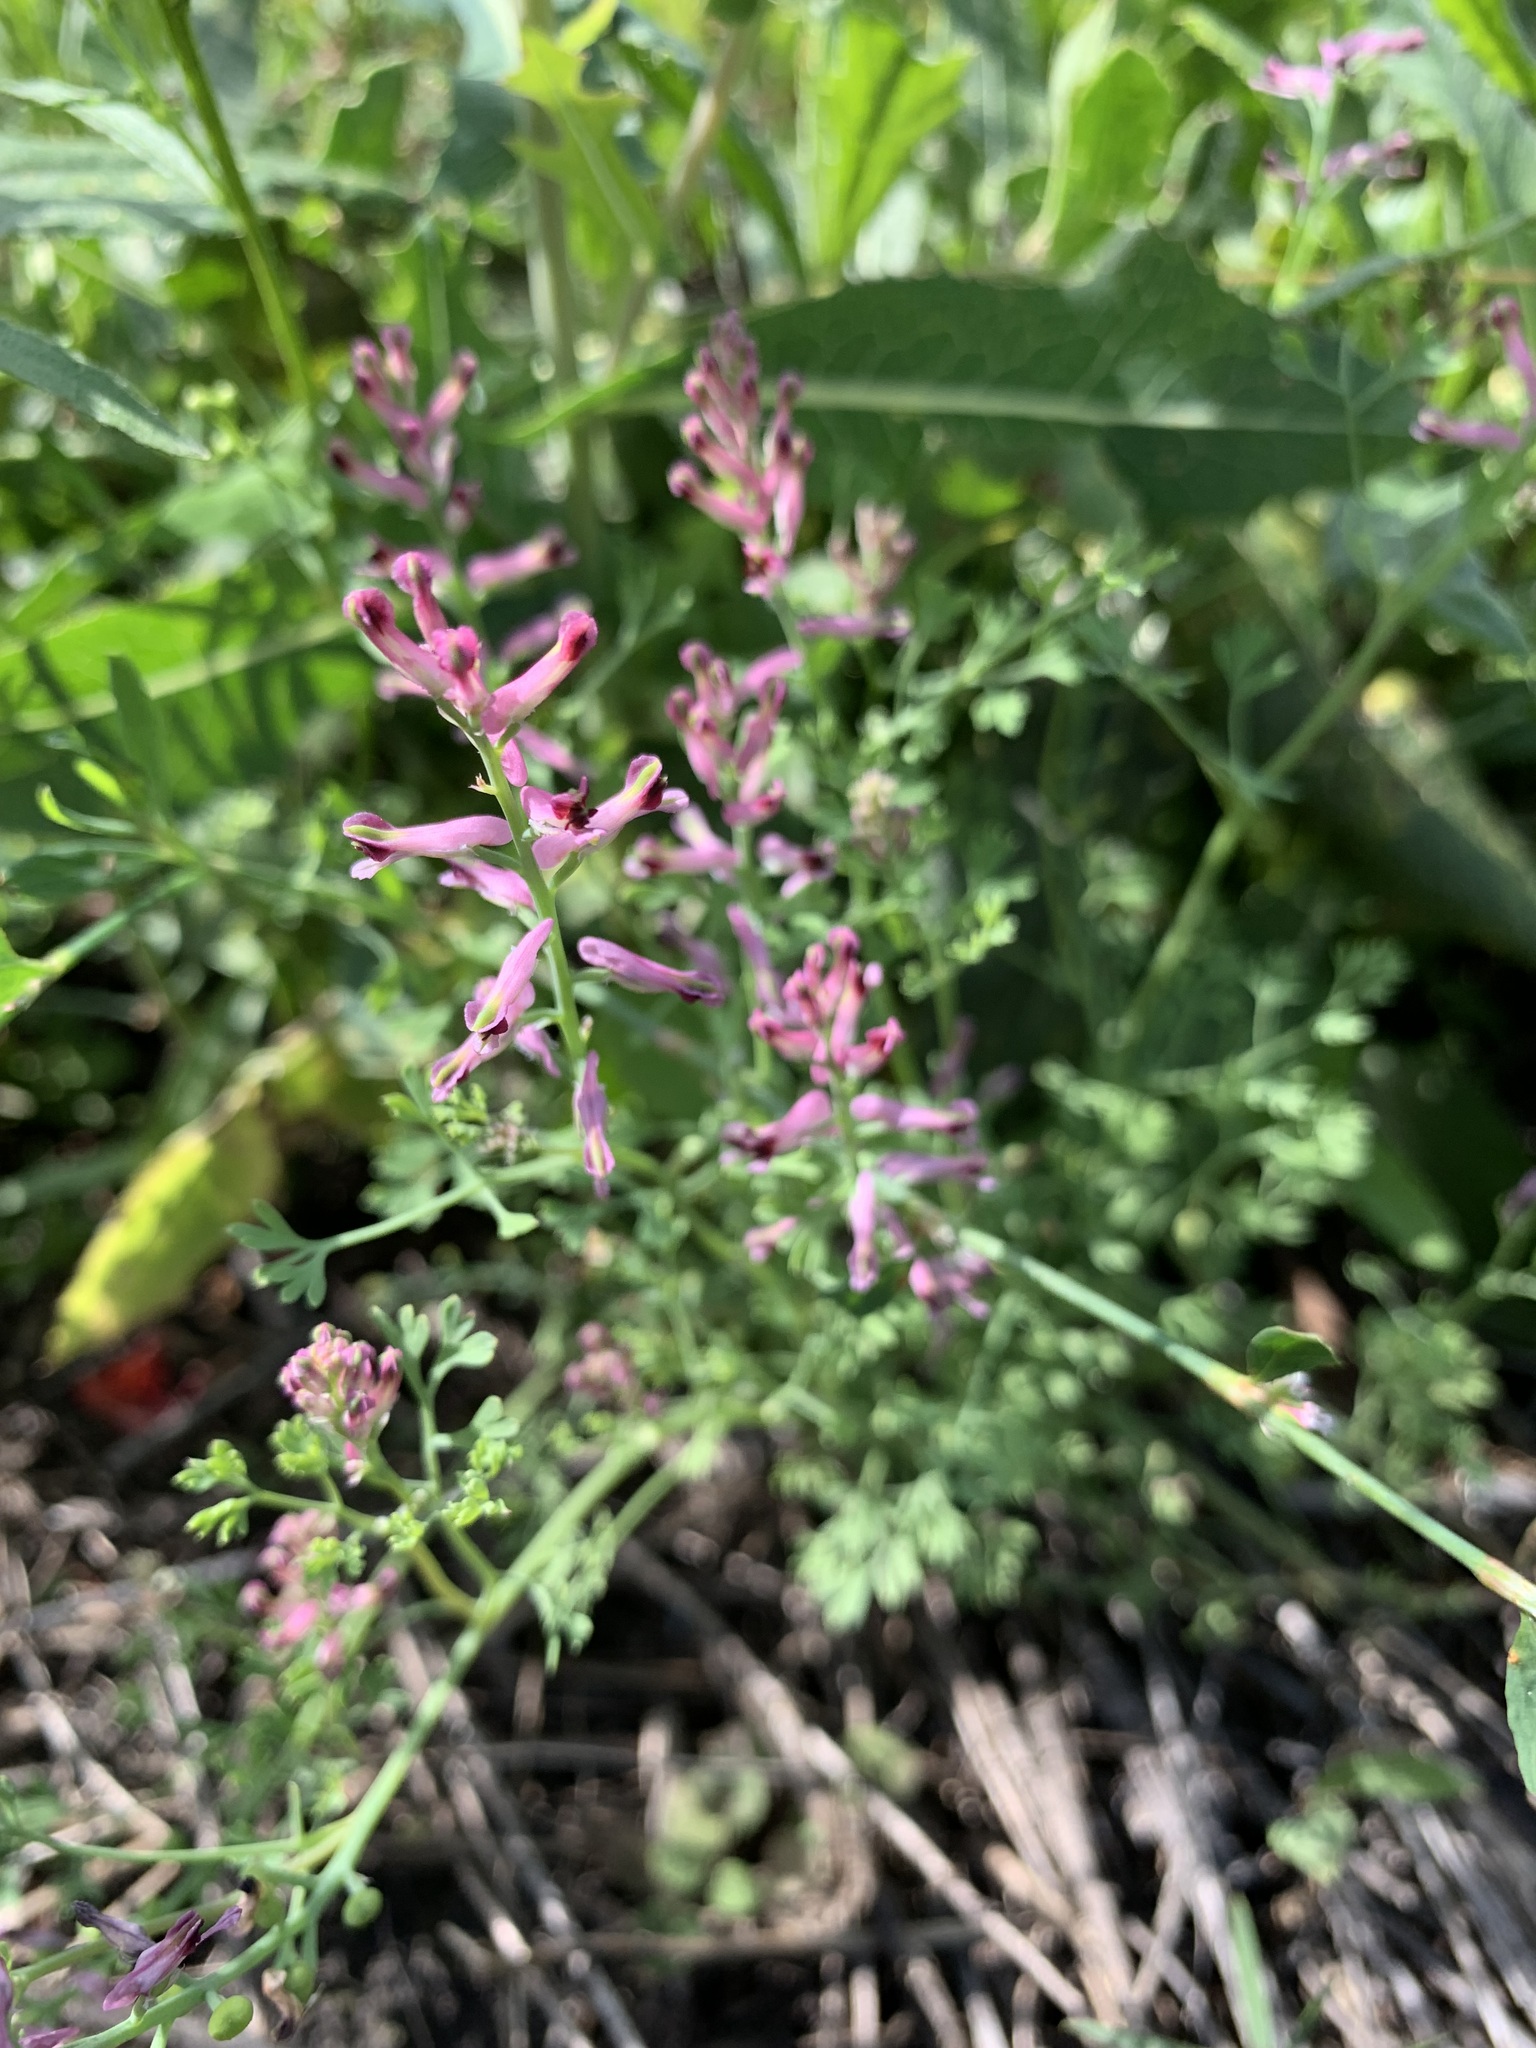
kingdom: Plantae
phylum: Tracheophyta
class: Magnoliopsida
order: Ranunculales
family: Papaveraceae
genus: Fumaria
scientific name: Fumaria officinalis
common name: Common fumitory
